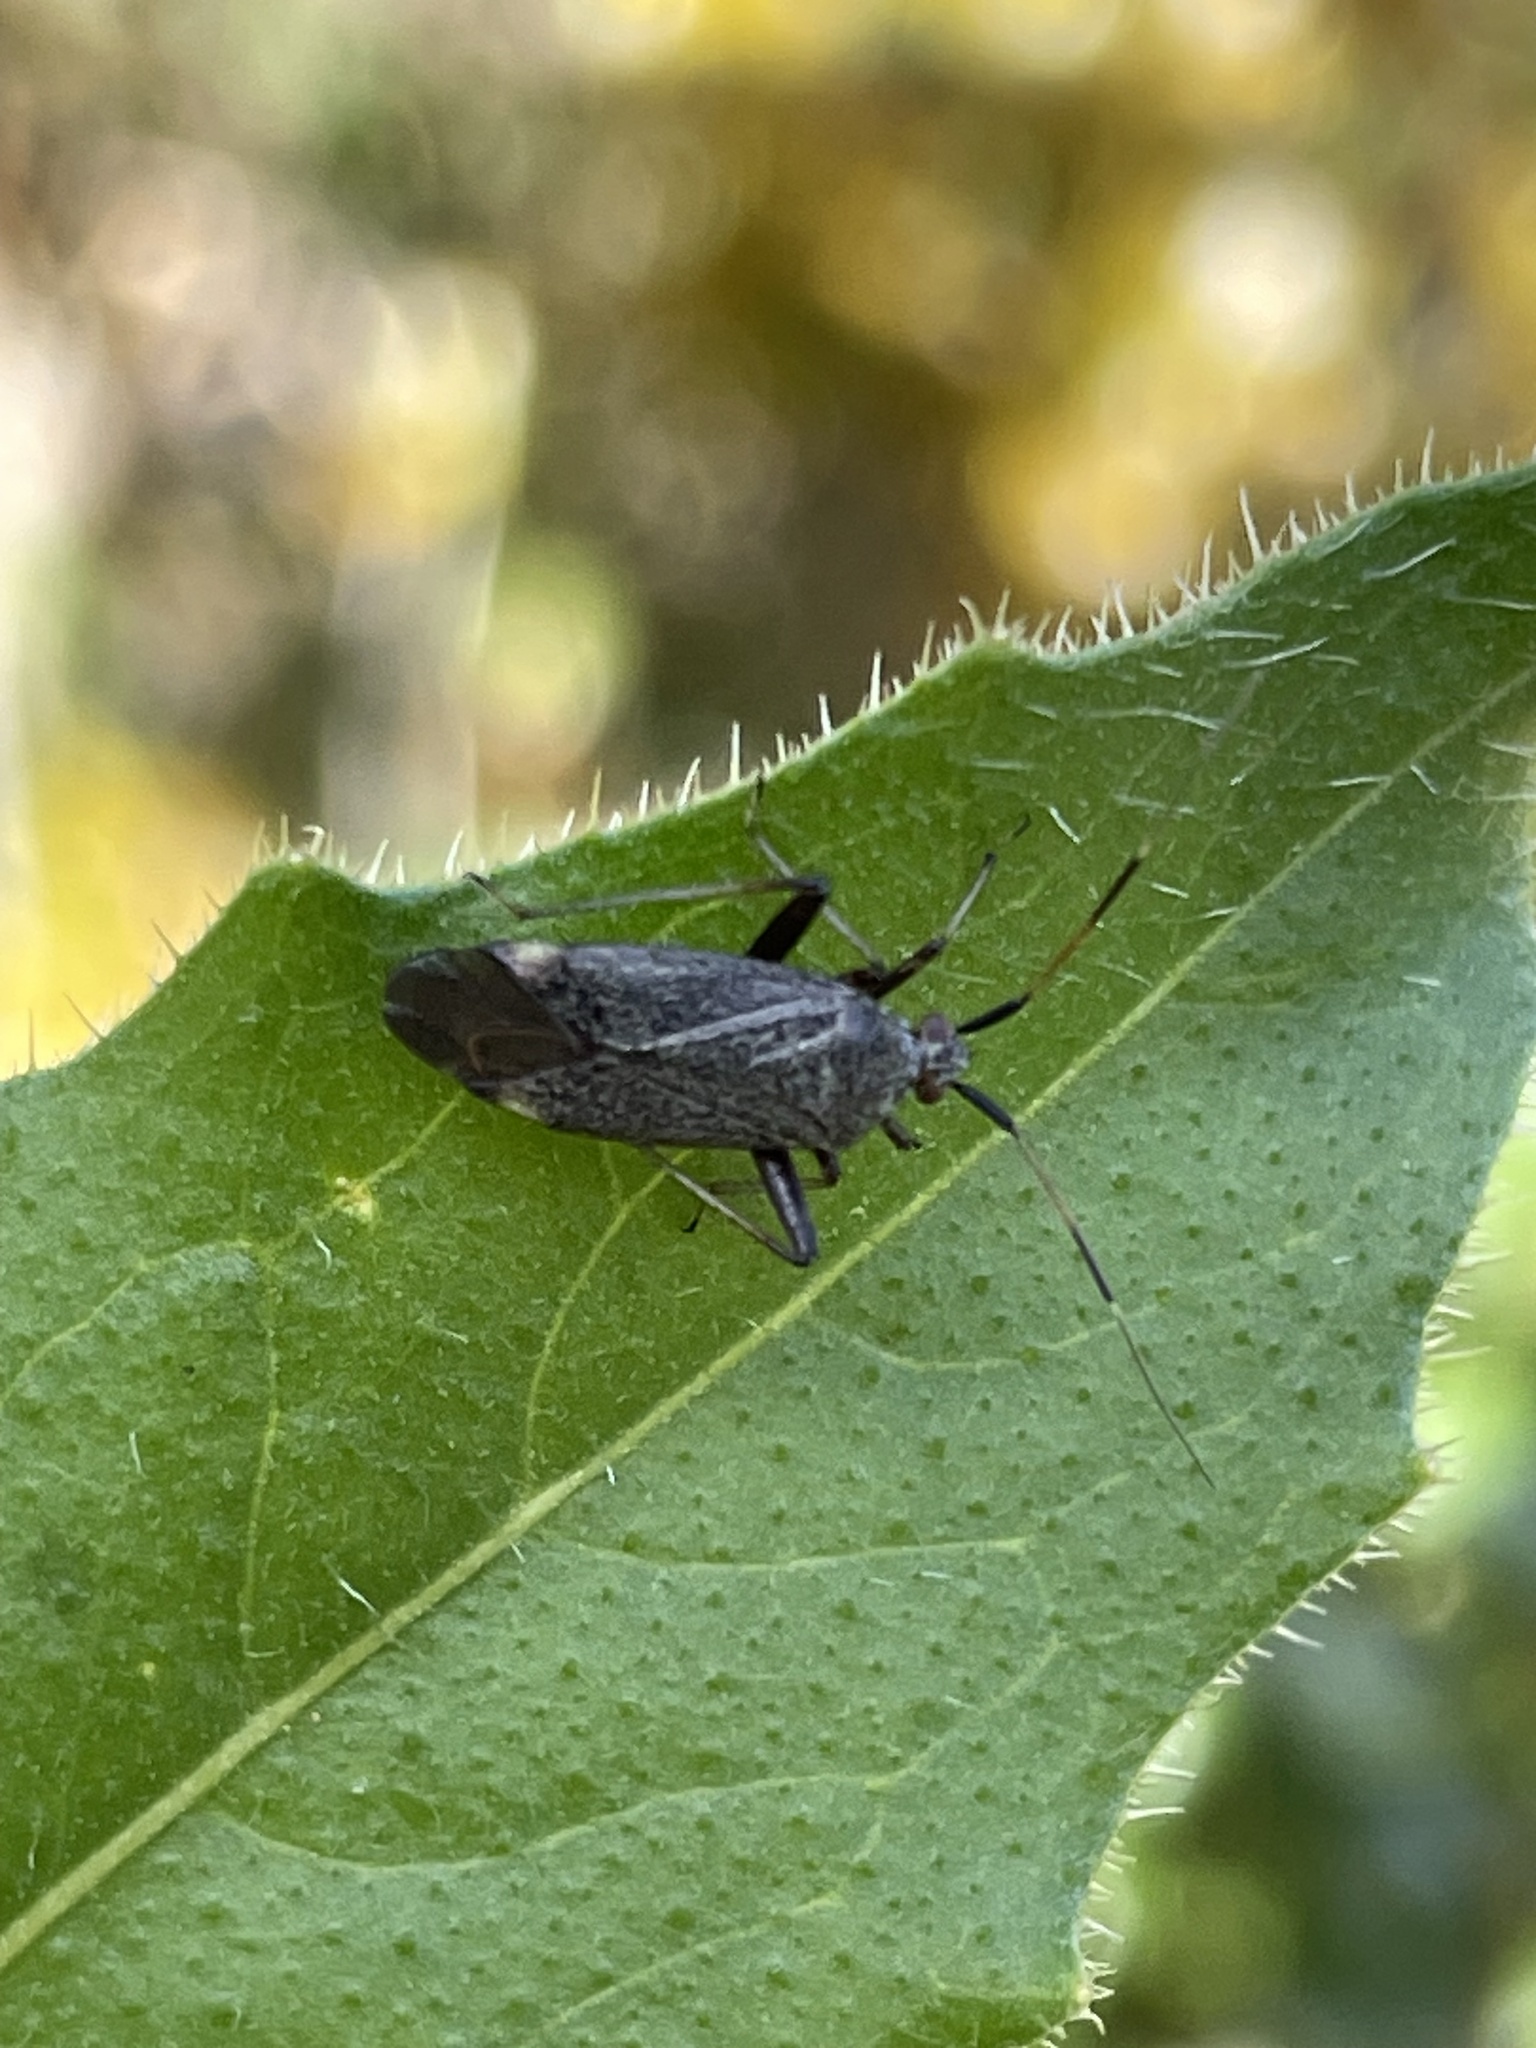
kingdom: Animalia
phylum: Arthropoda
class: Insecta
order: Hemiptera
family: Miridae
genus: Closterotomus
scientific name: Closterotomus annulus
